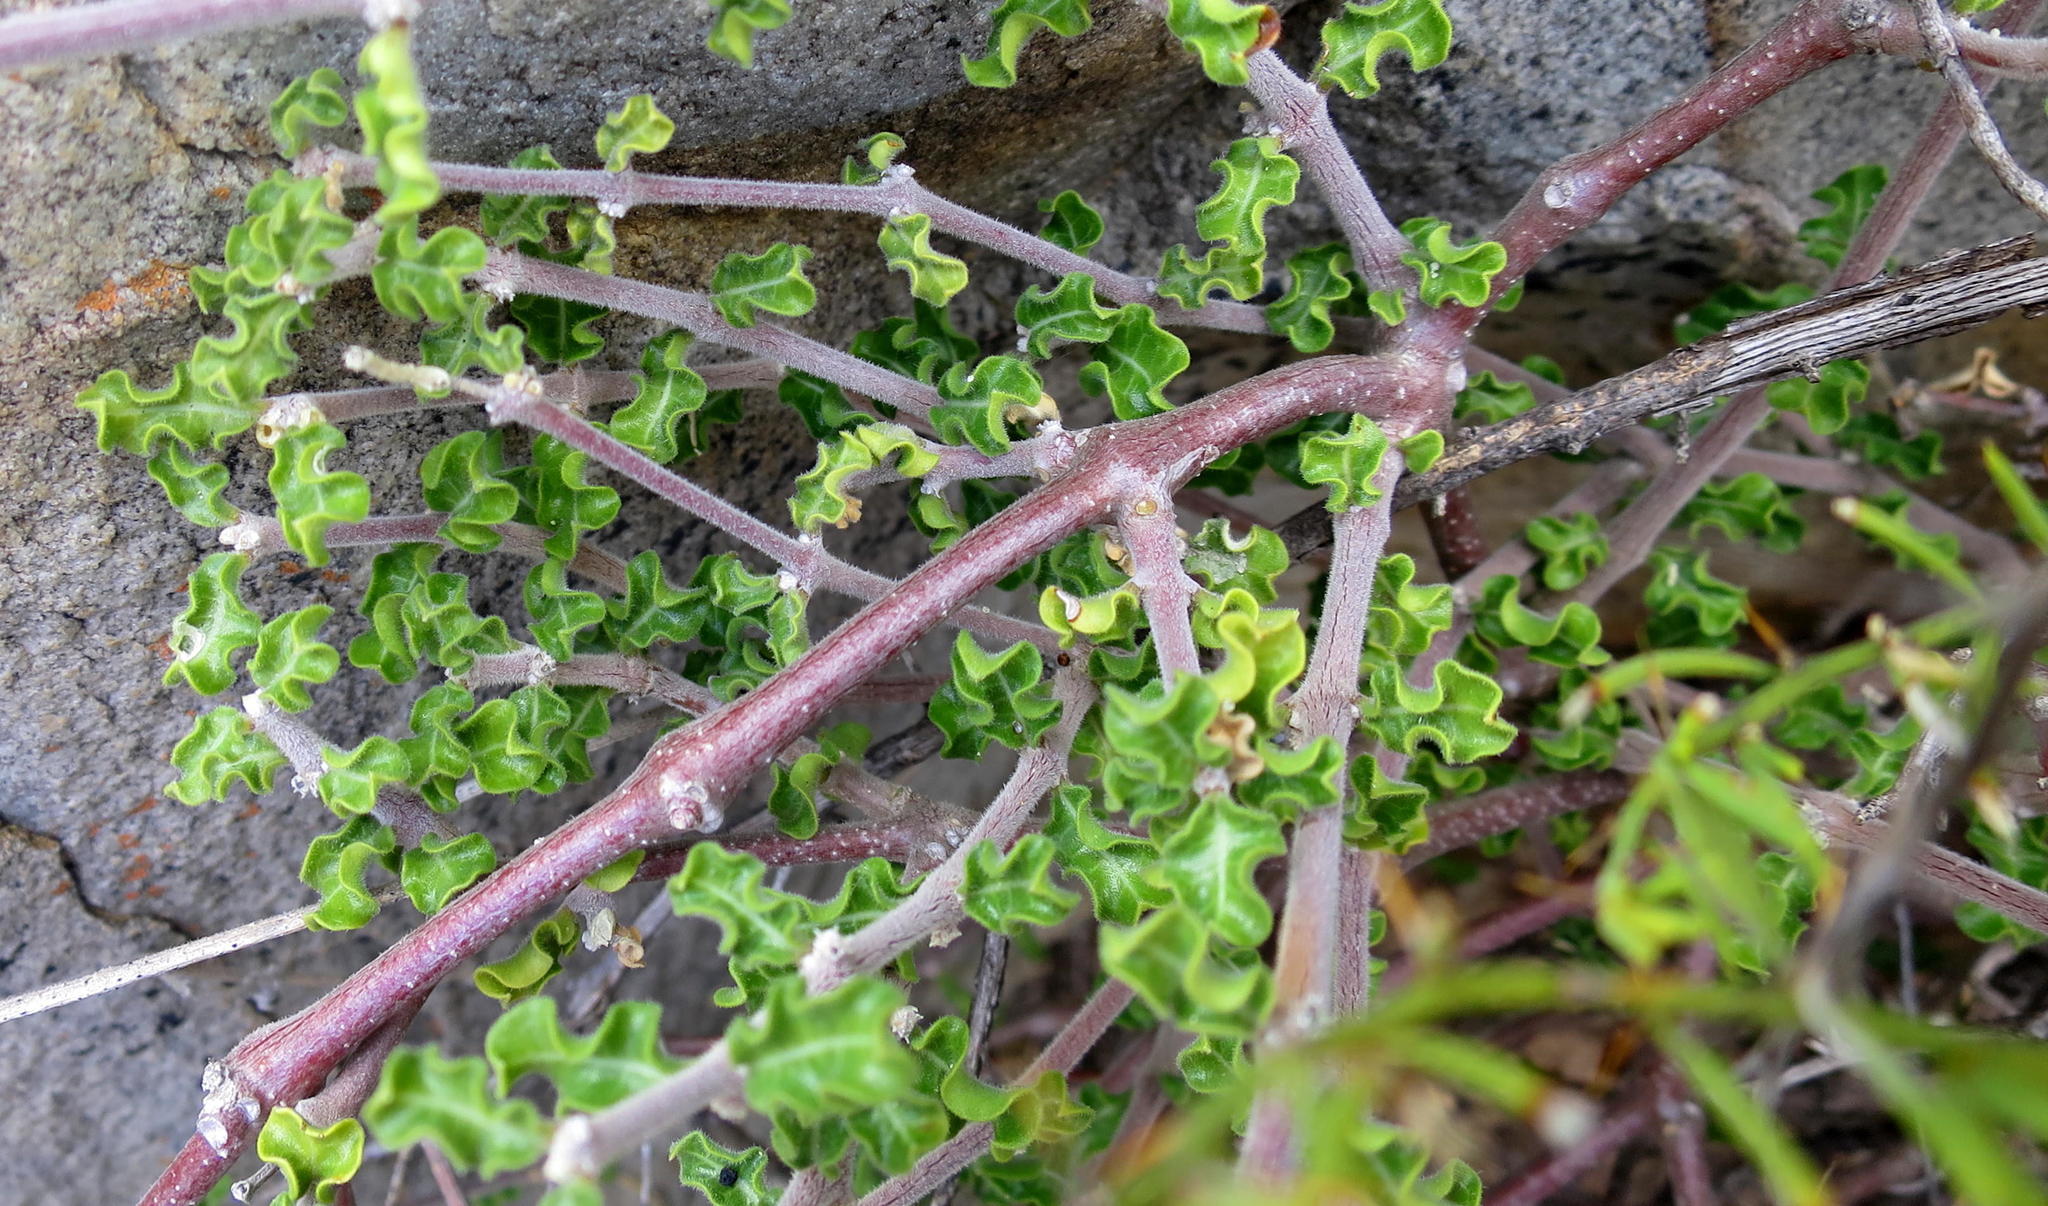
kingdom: Plantae
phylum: Tracheophyta
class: Magnoliopsida
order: Gentianales
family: Apocynaceae
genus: Fockea
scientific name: Fockea capensis
